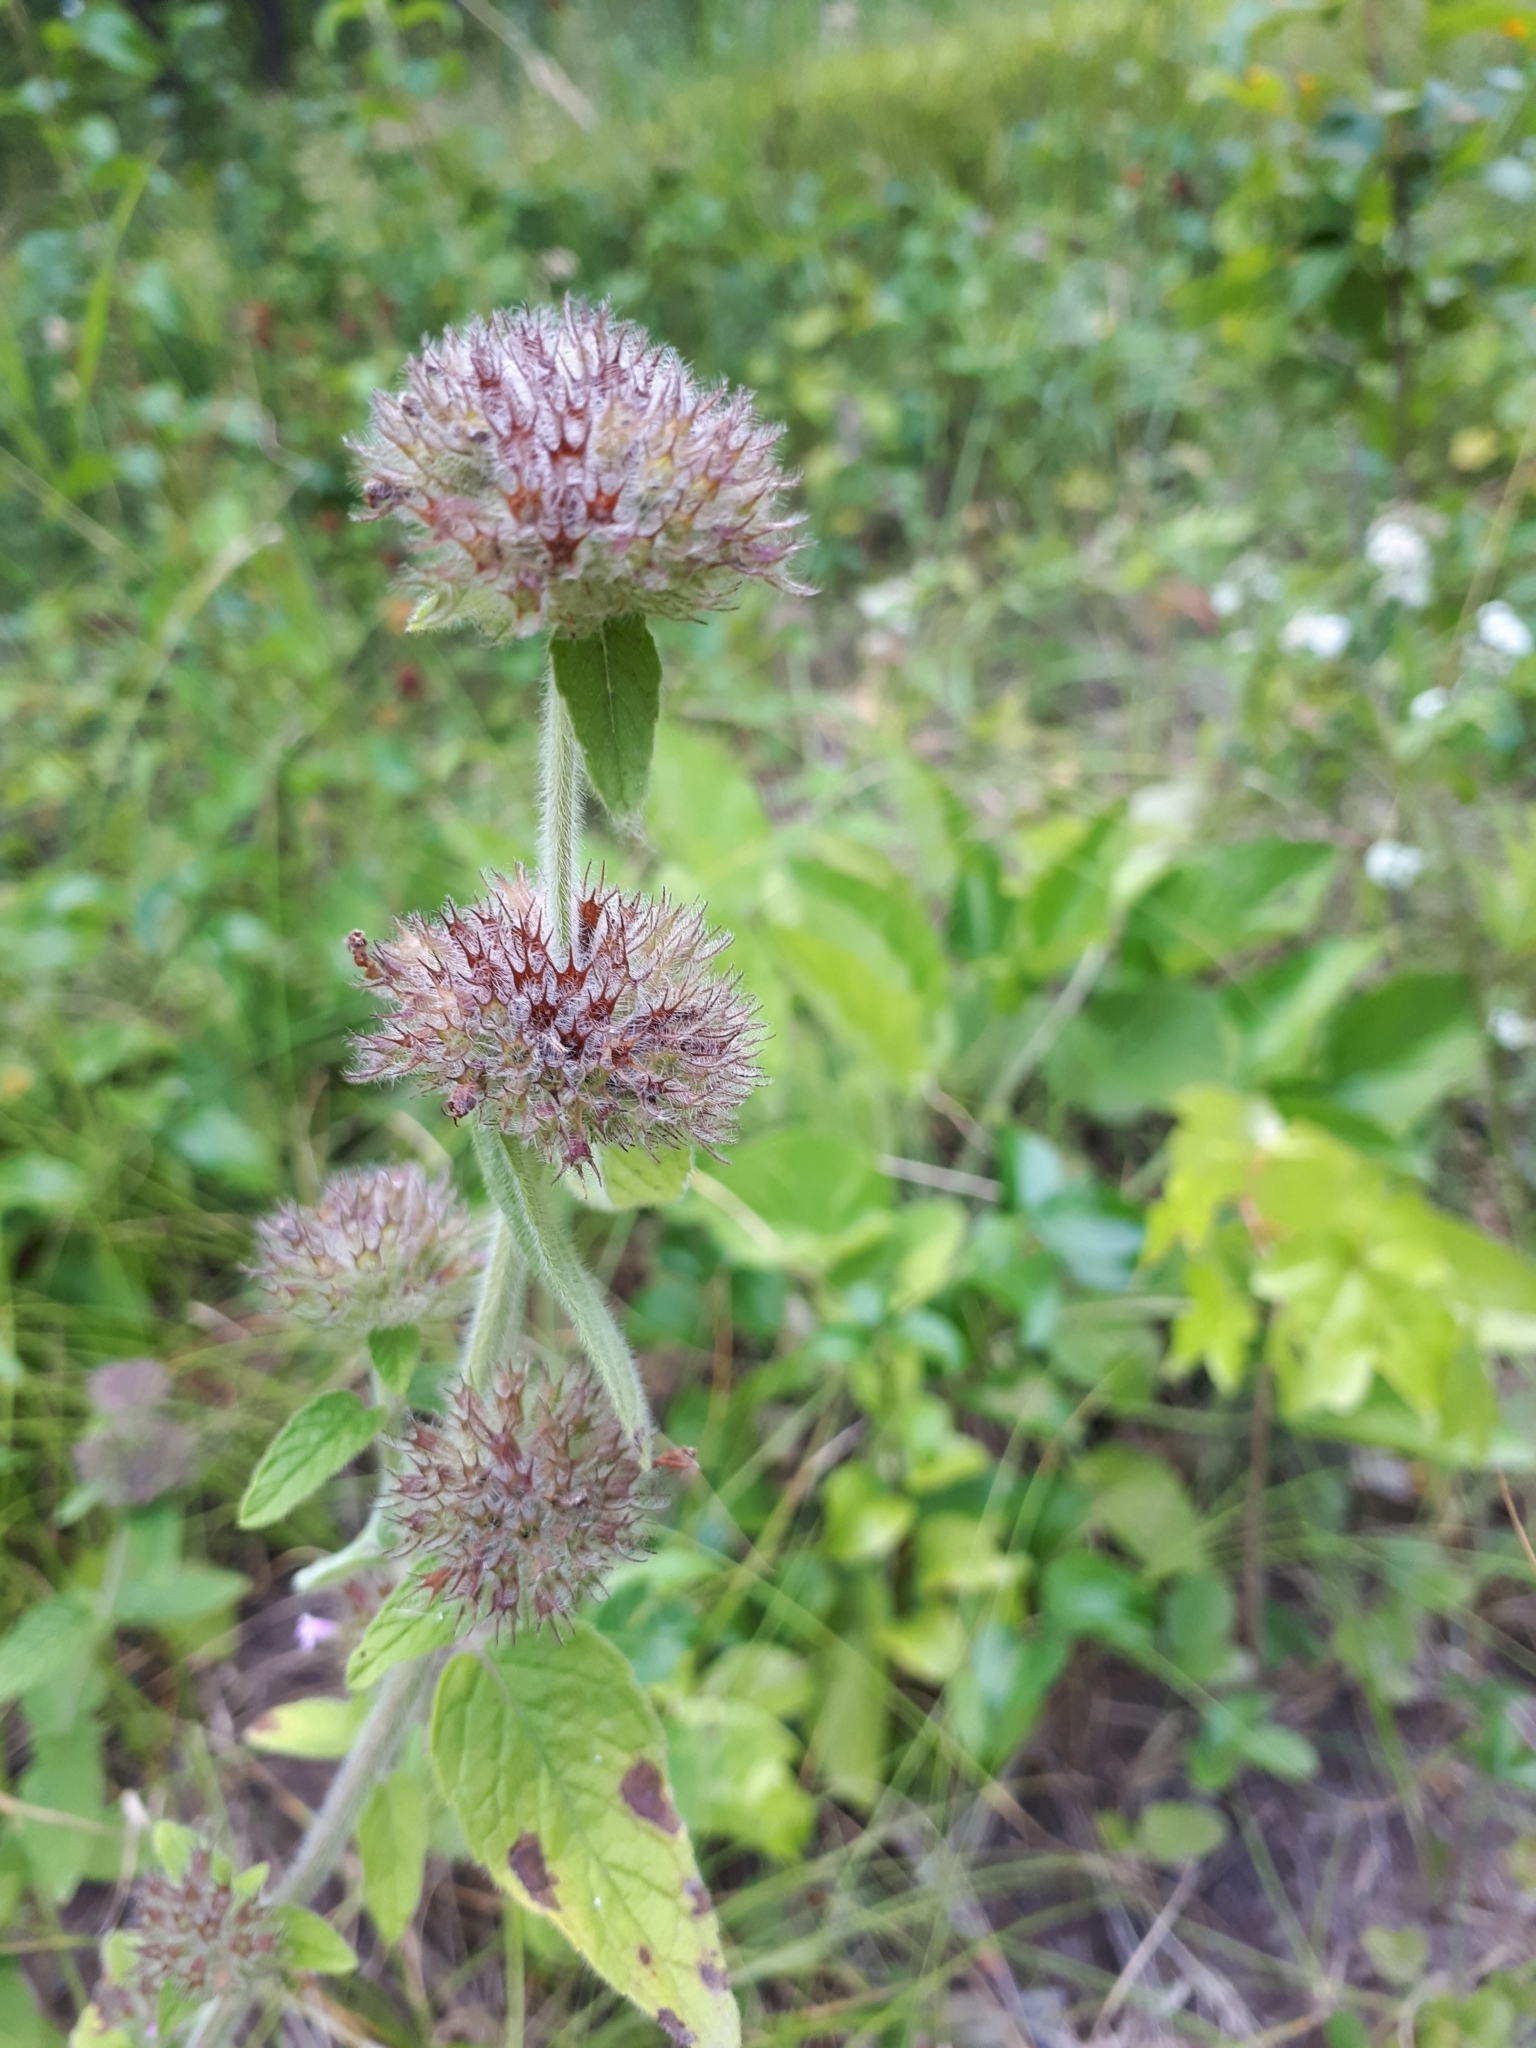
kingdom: Plantae
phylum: Tracheophyta
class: Magnoliopsida
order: Lamiales
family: Lamiaceae
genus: Clinopodium
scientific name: Clinopodium vulgare
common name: Wild basil
